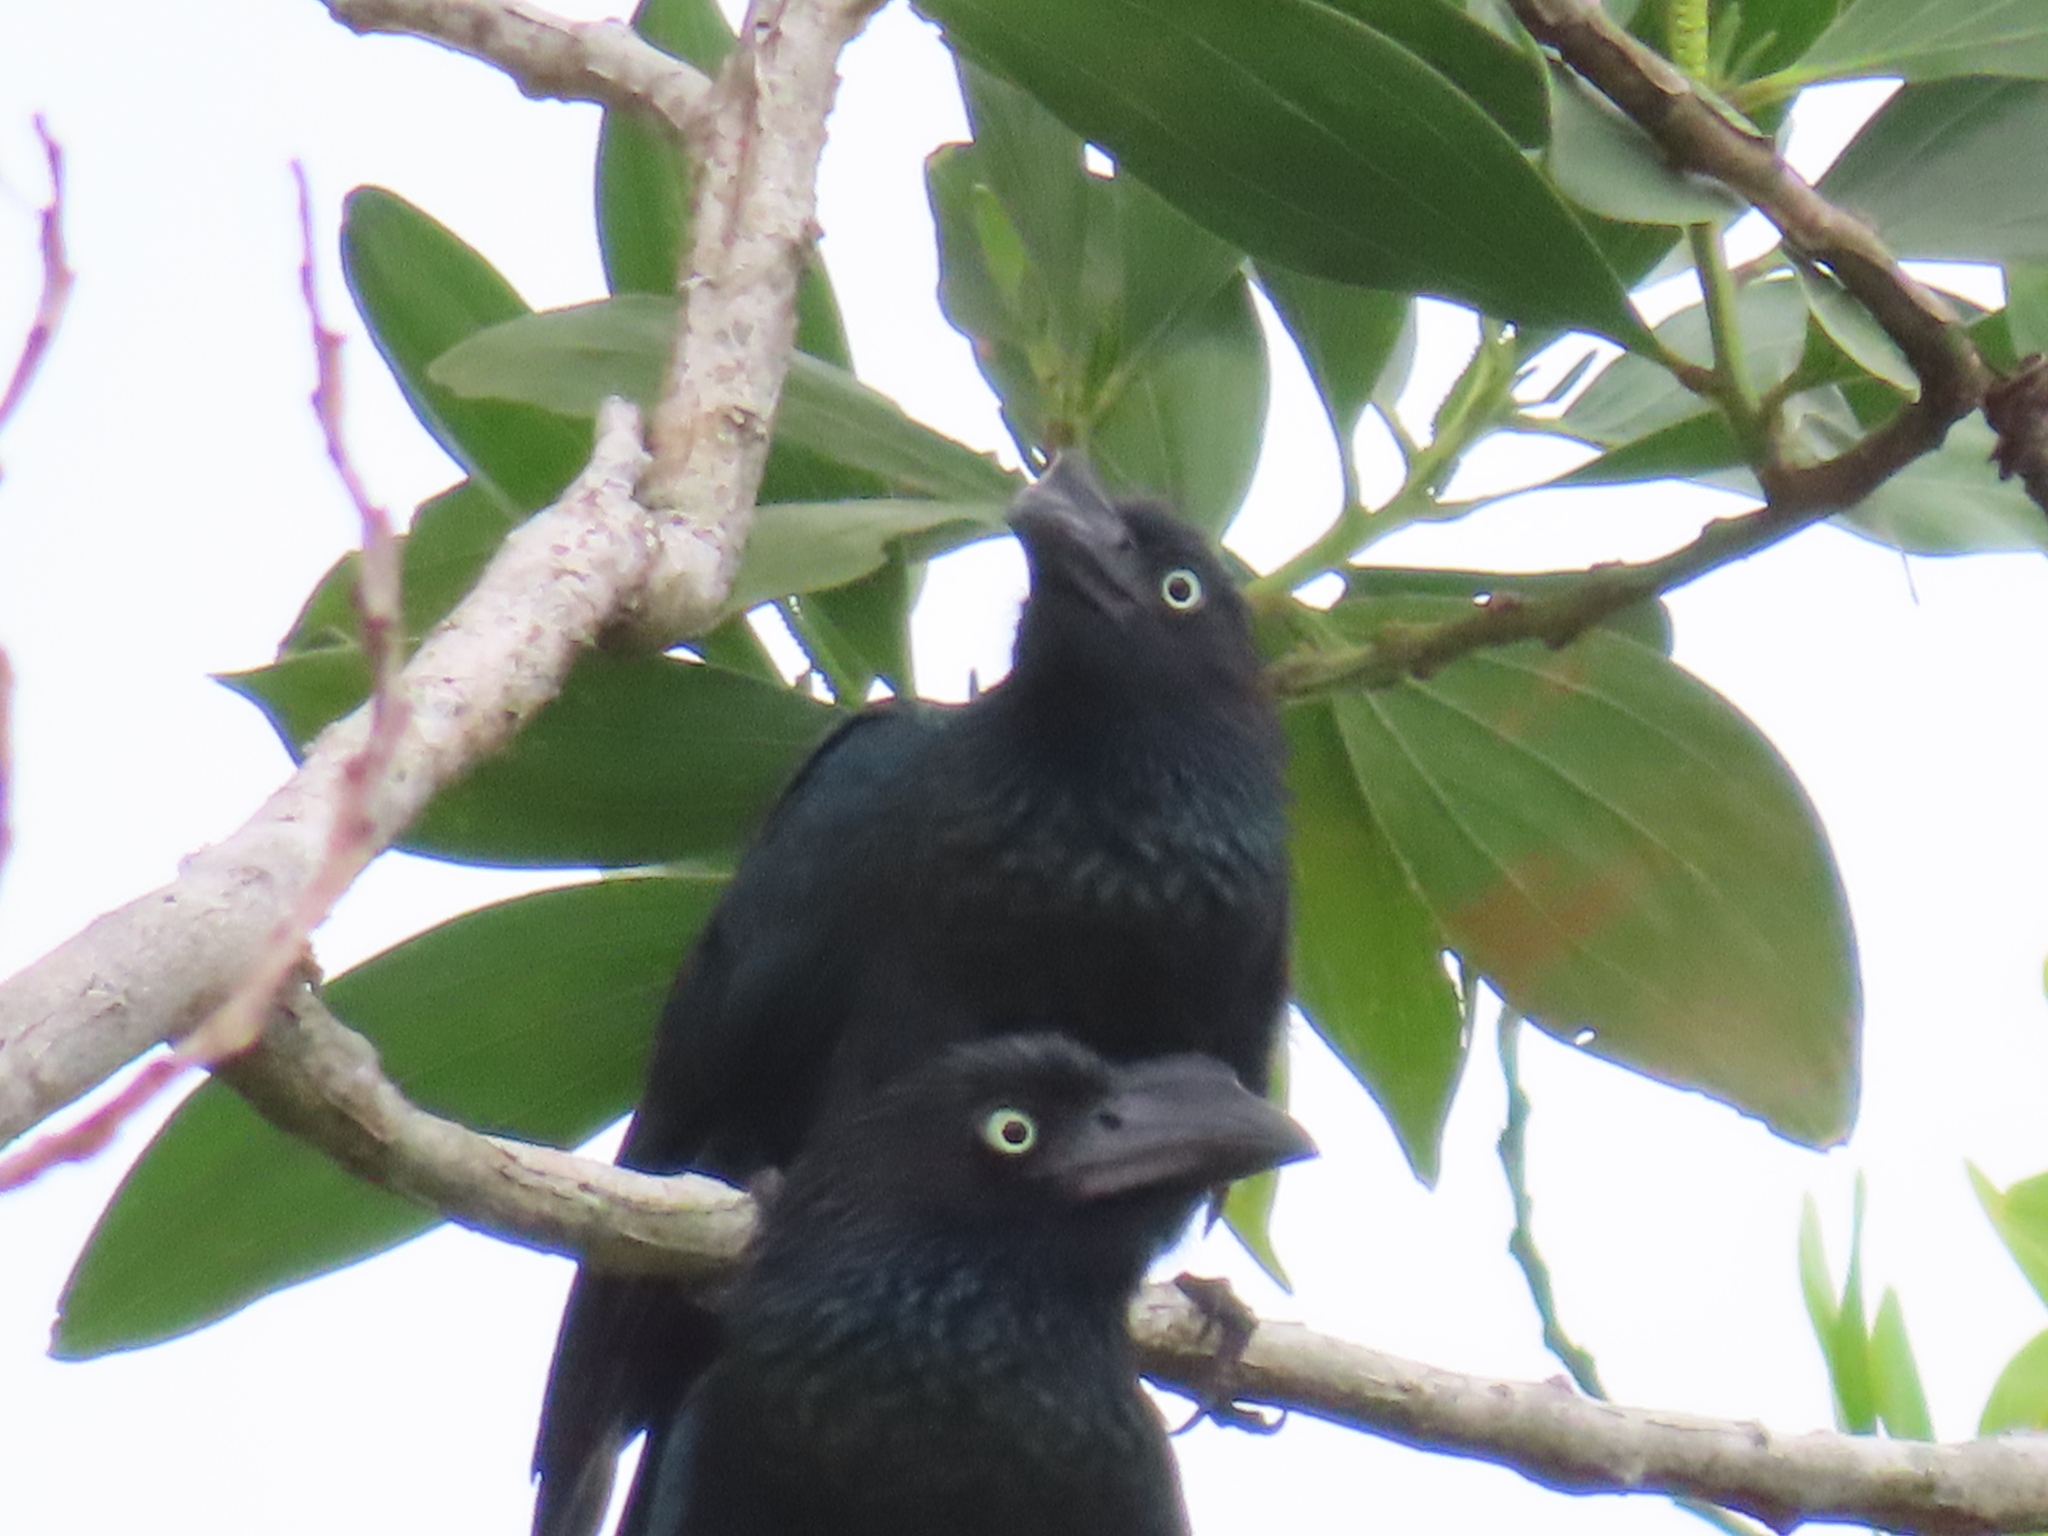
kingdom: Animalia
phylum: Chordata
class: Aves
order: Cuculiformes
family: Cuculidae
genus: Crotophaga
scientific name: Crotophaga major
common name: Greater ani
